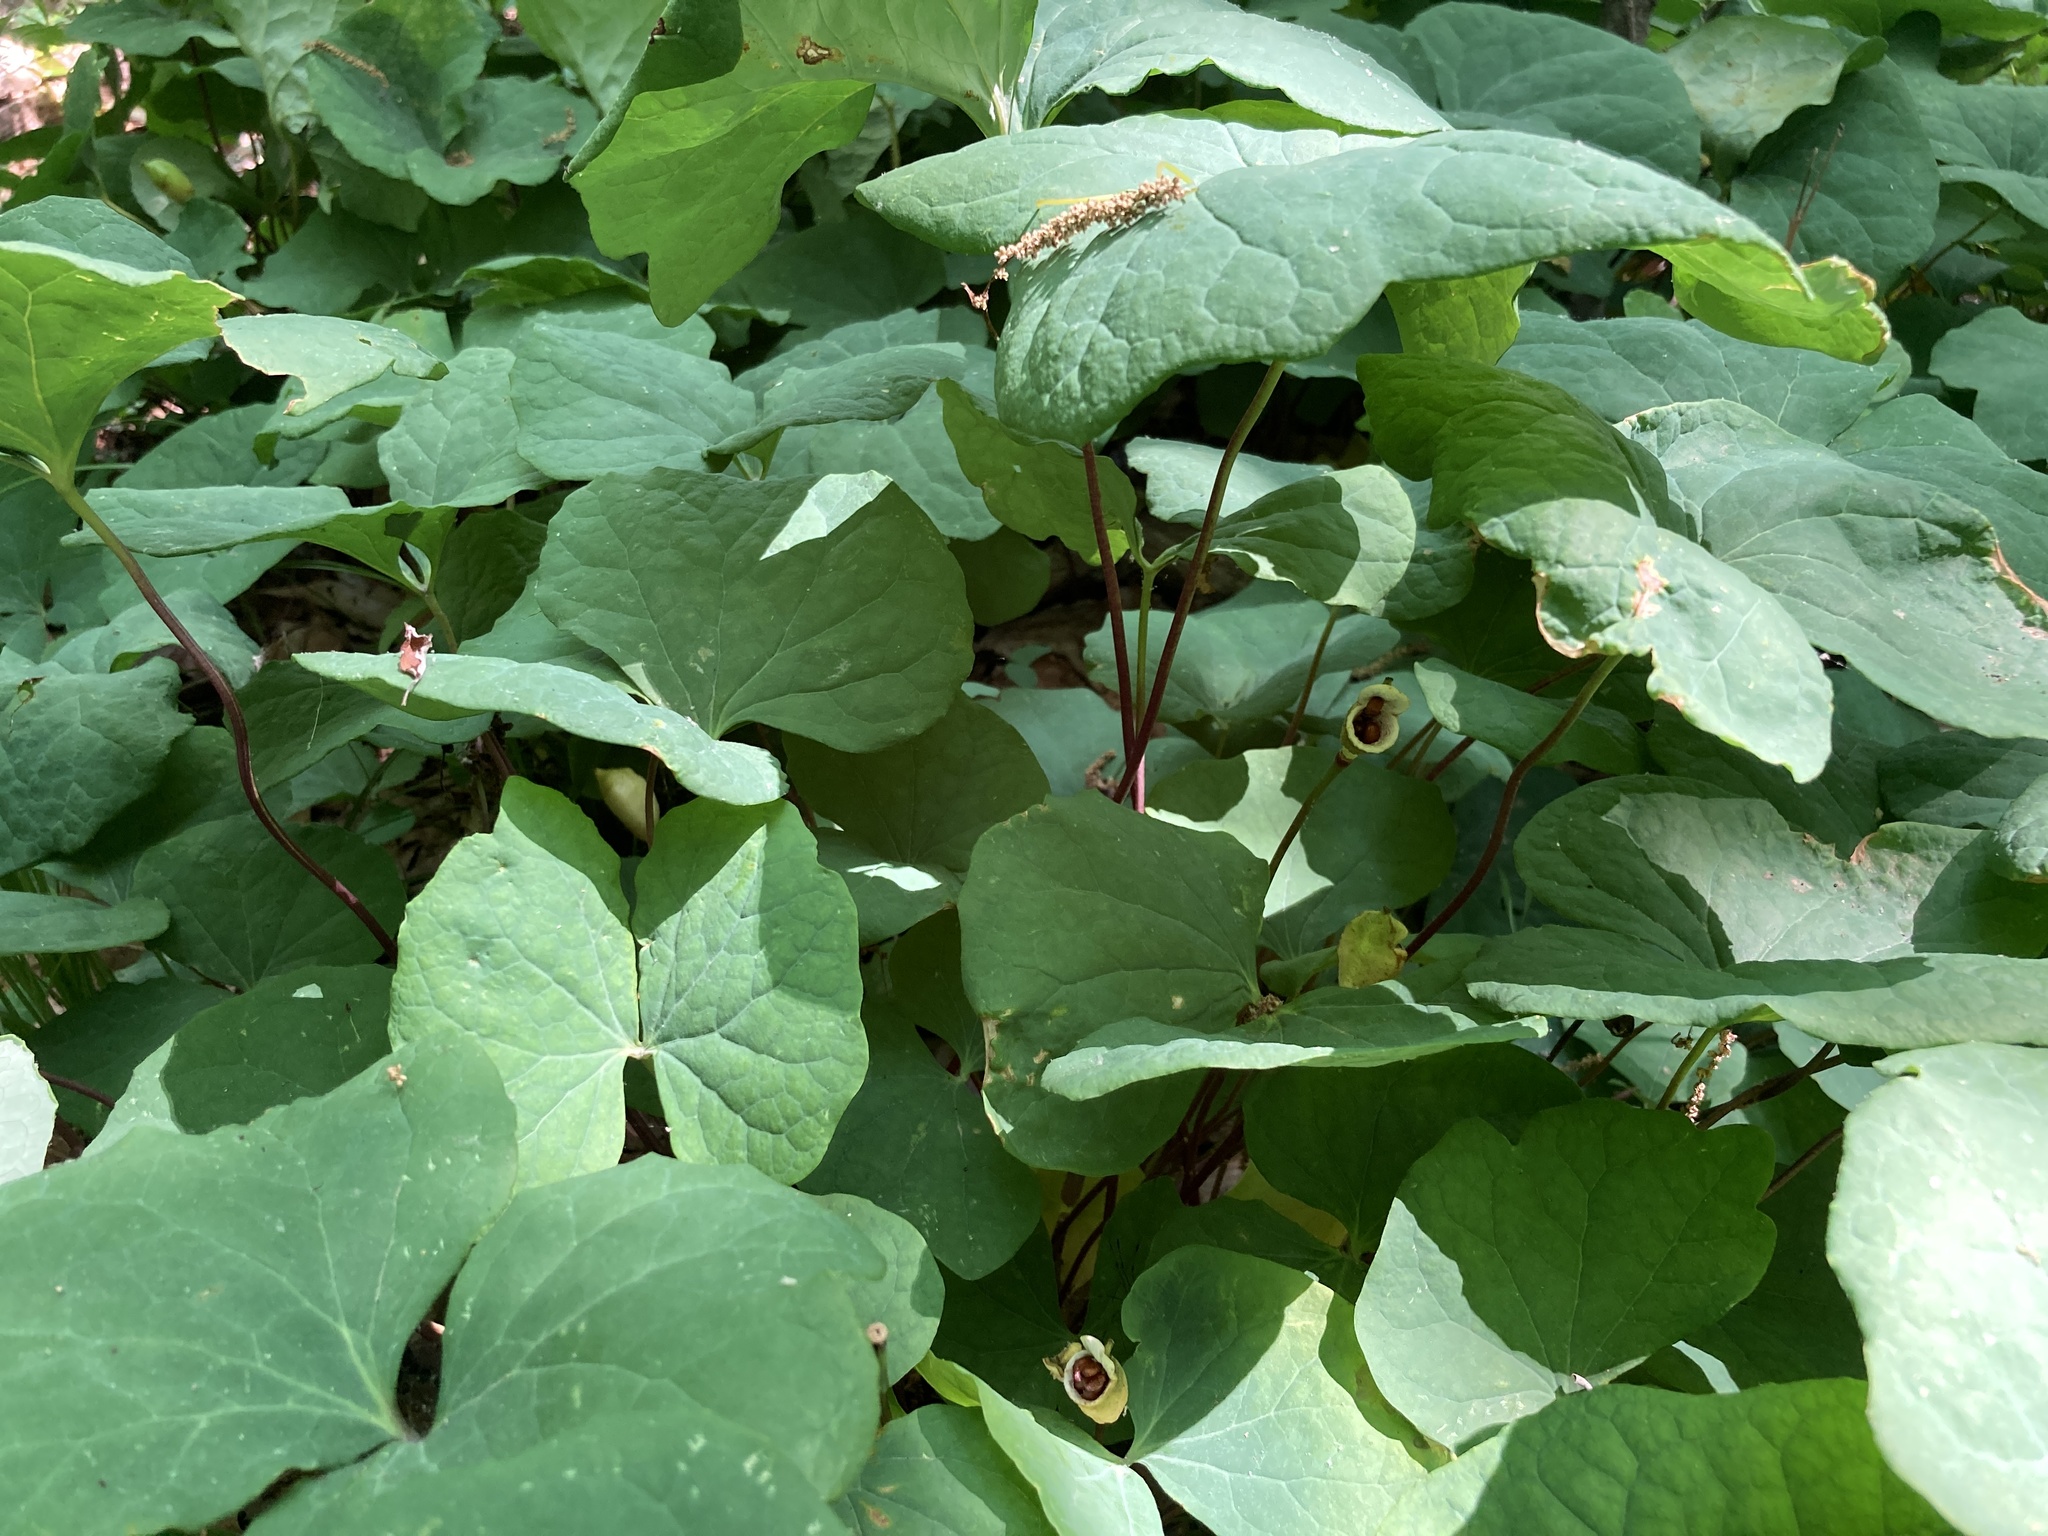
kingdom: Plantae
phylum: Tracheophyta
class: Magnoliopsida
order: Ranunculales
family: Berberidaceae
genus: Jeffersonia
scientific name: Jeffersonia diphylla
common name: Rheumatism-root
